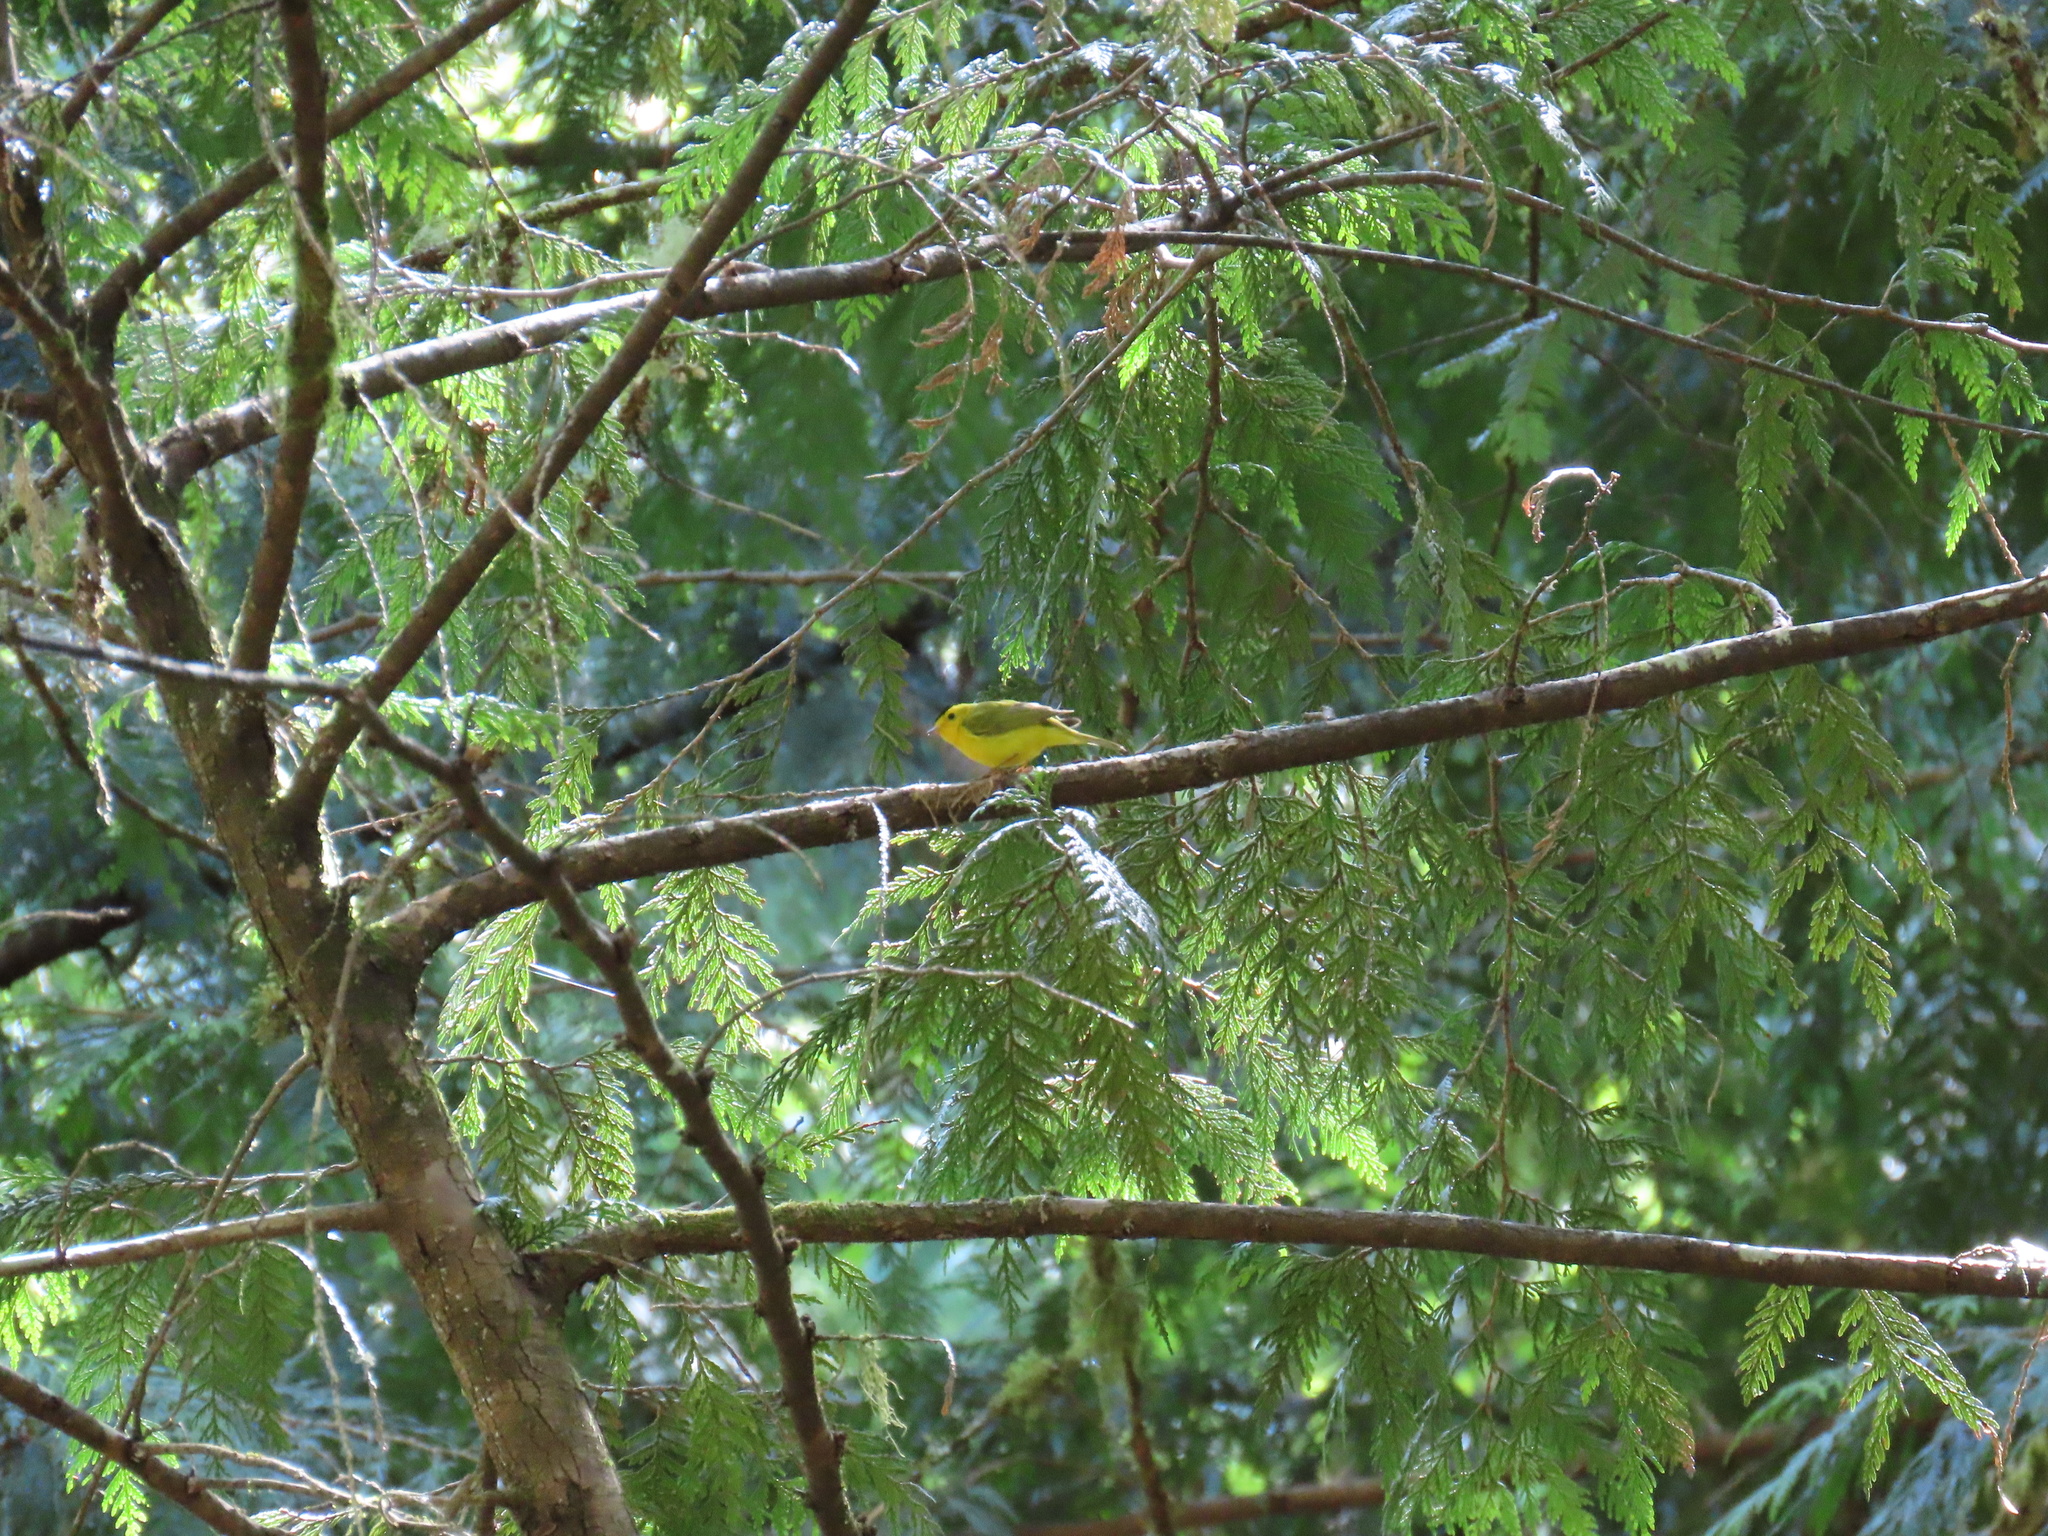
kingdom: Animalia
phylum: Chordata
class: Aves
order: Passeriformes
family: Parulidae
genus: Cardellina
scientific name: Cardellina pusilla
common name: Wilson's warbler
